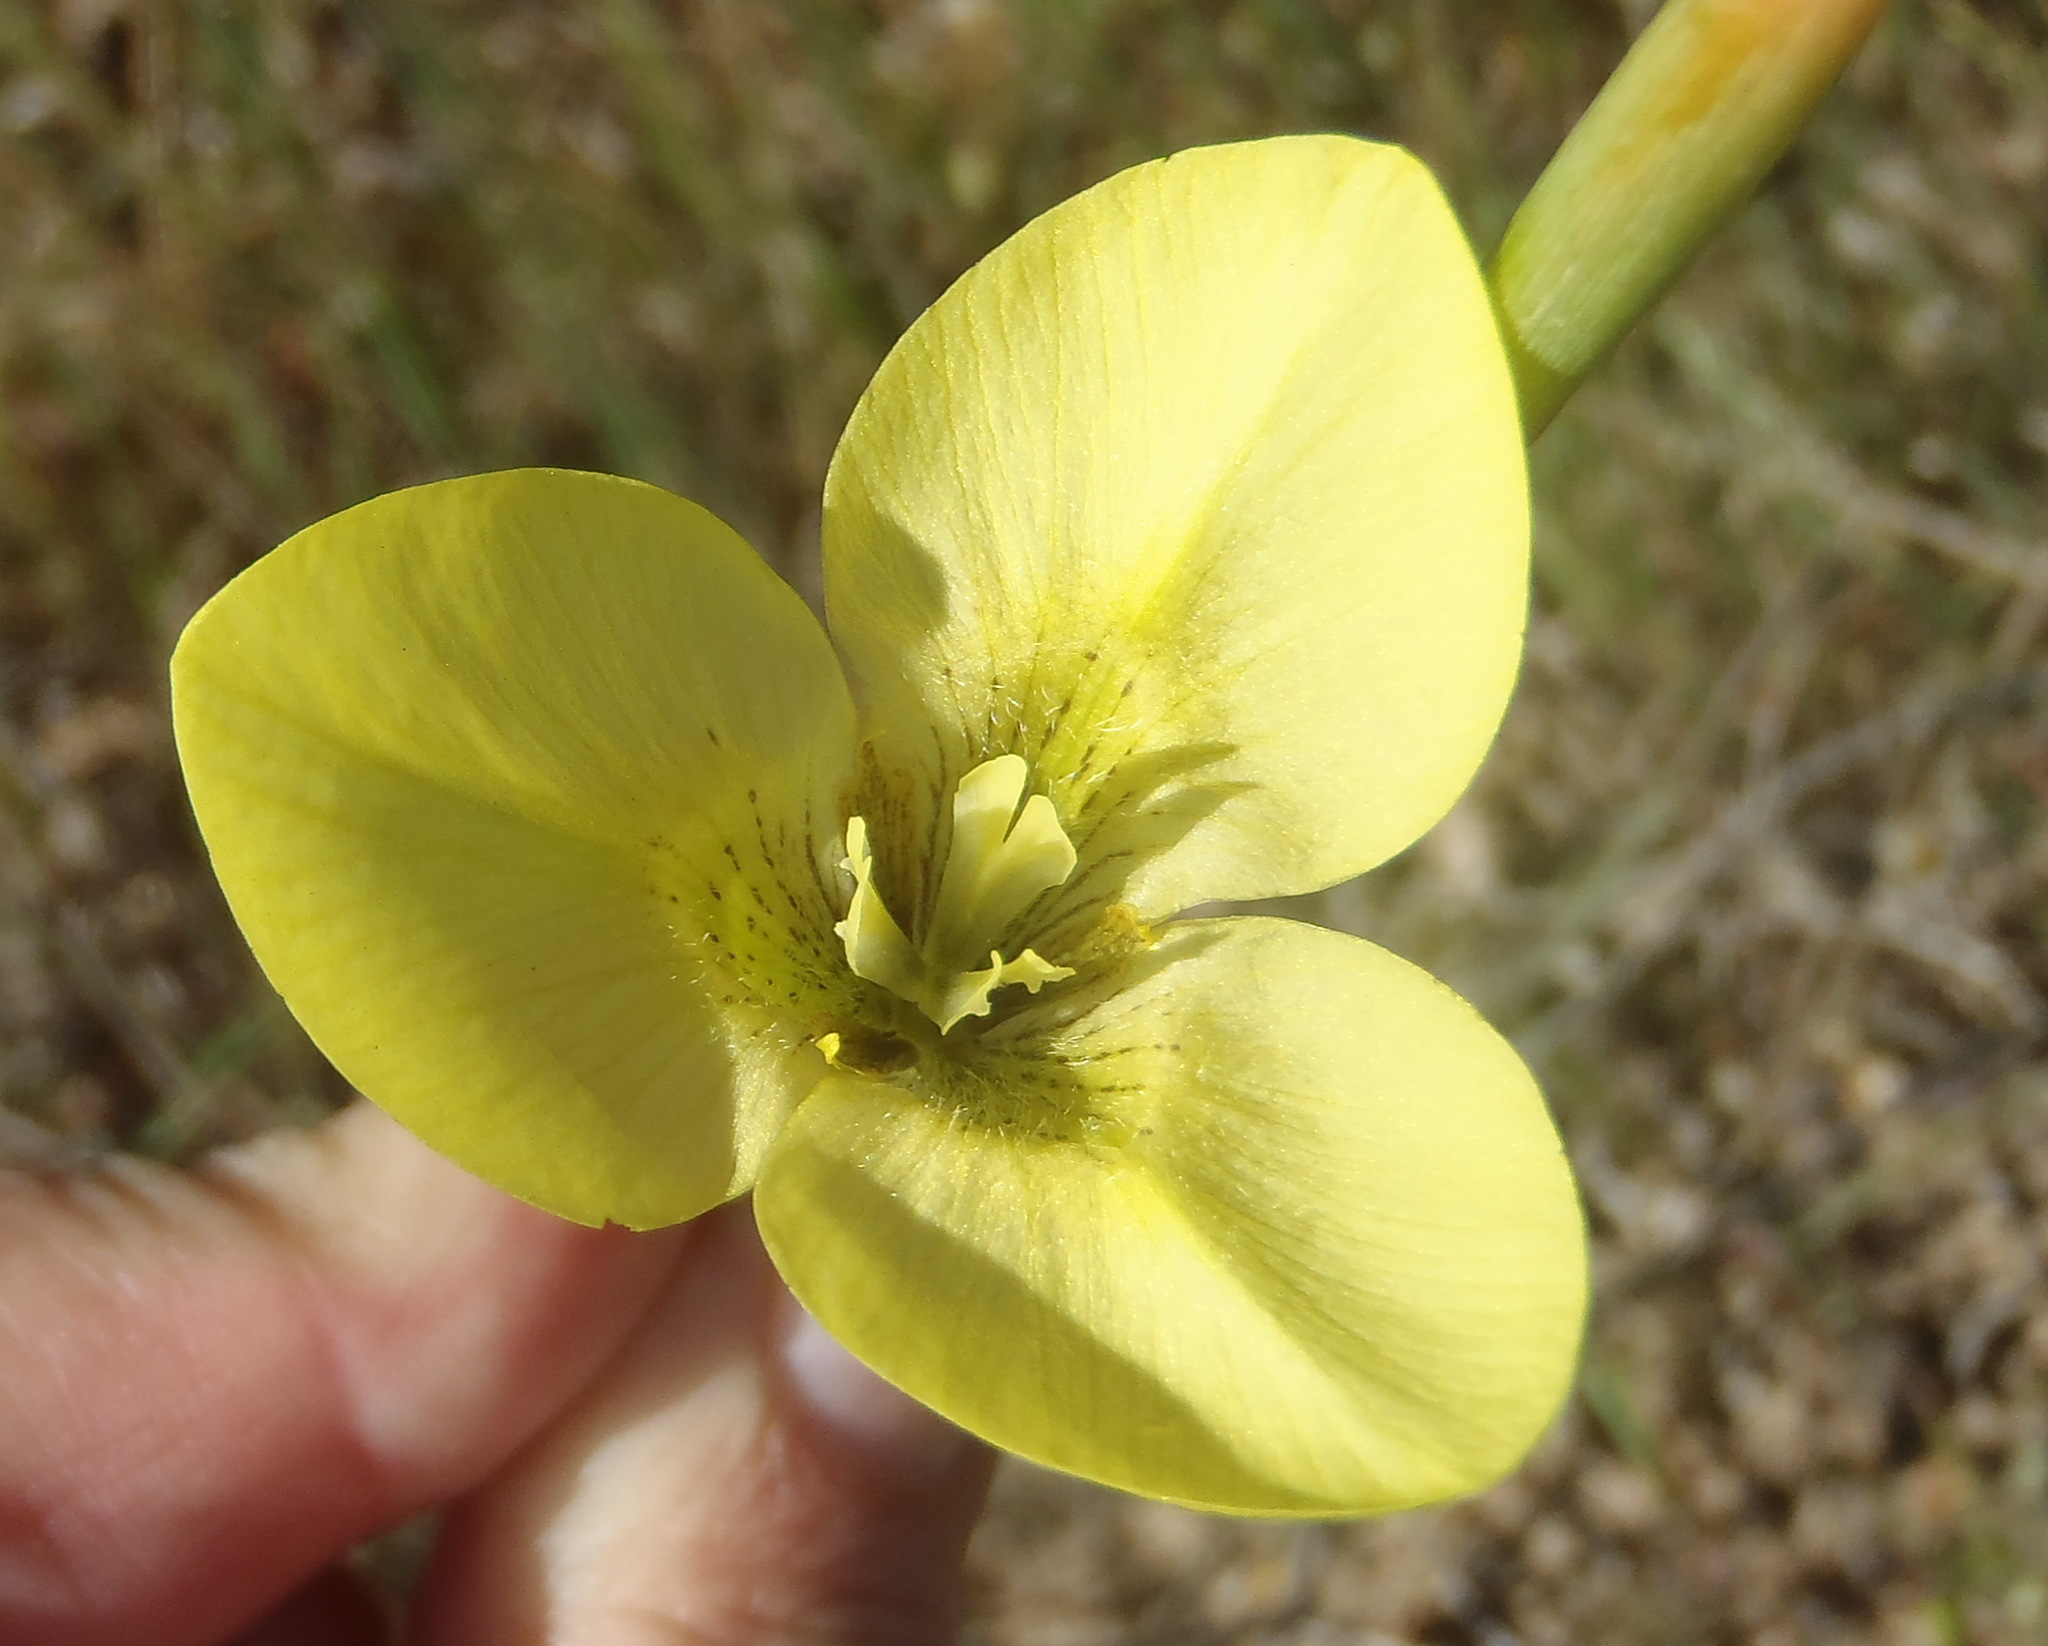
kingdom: Plantae
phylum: Tracheophyta
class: Liliopsida
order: Asparagales
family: Iridaceae
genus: Moraea
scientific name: Moraea bellendenii
